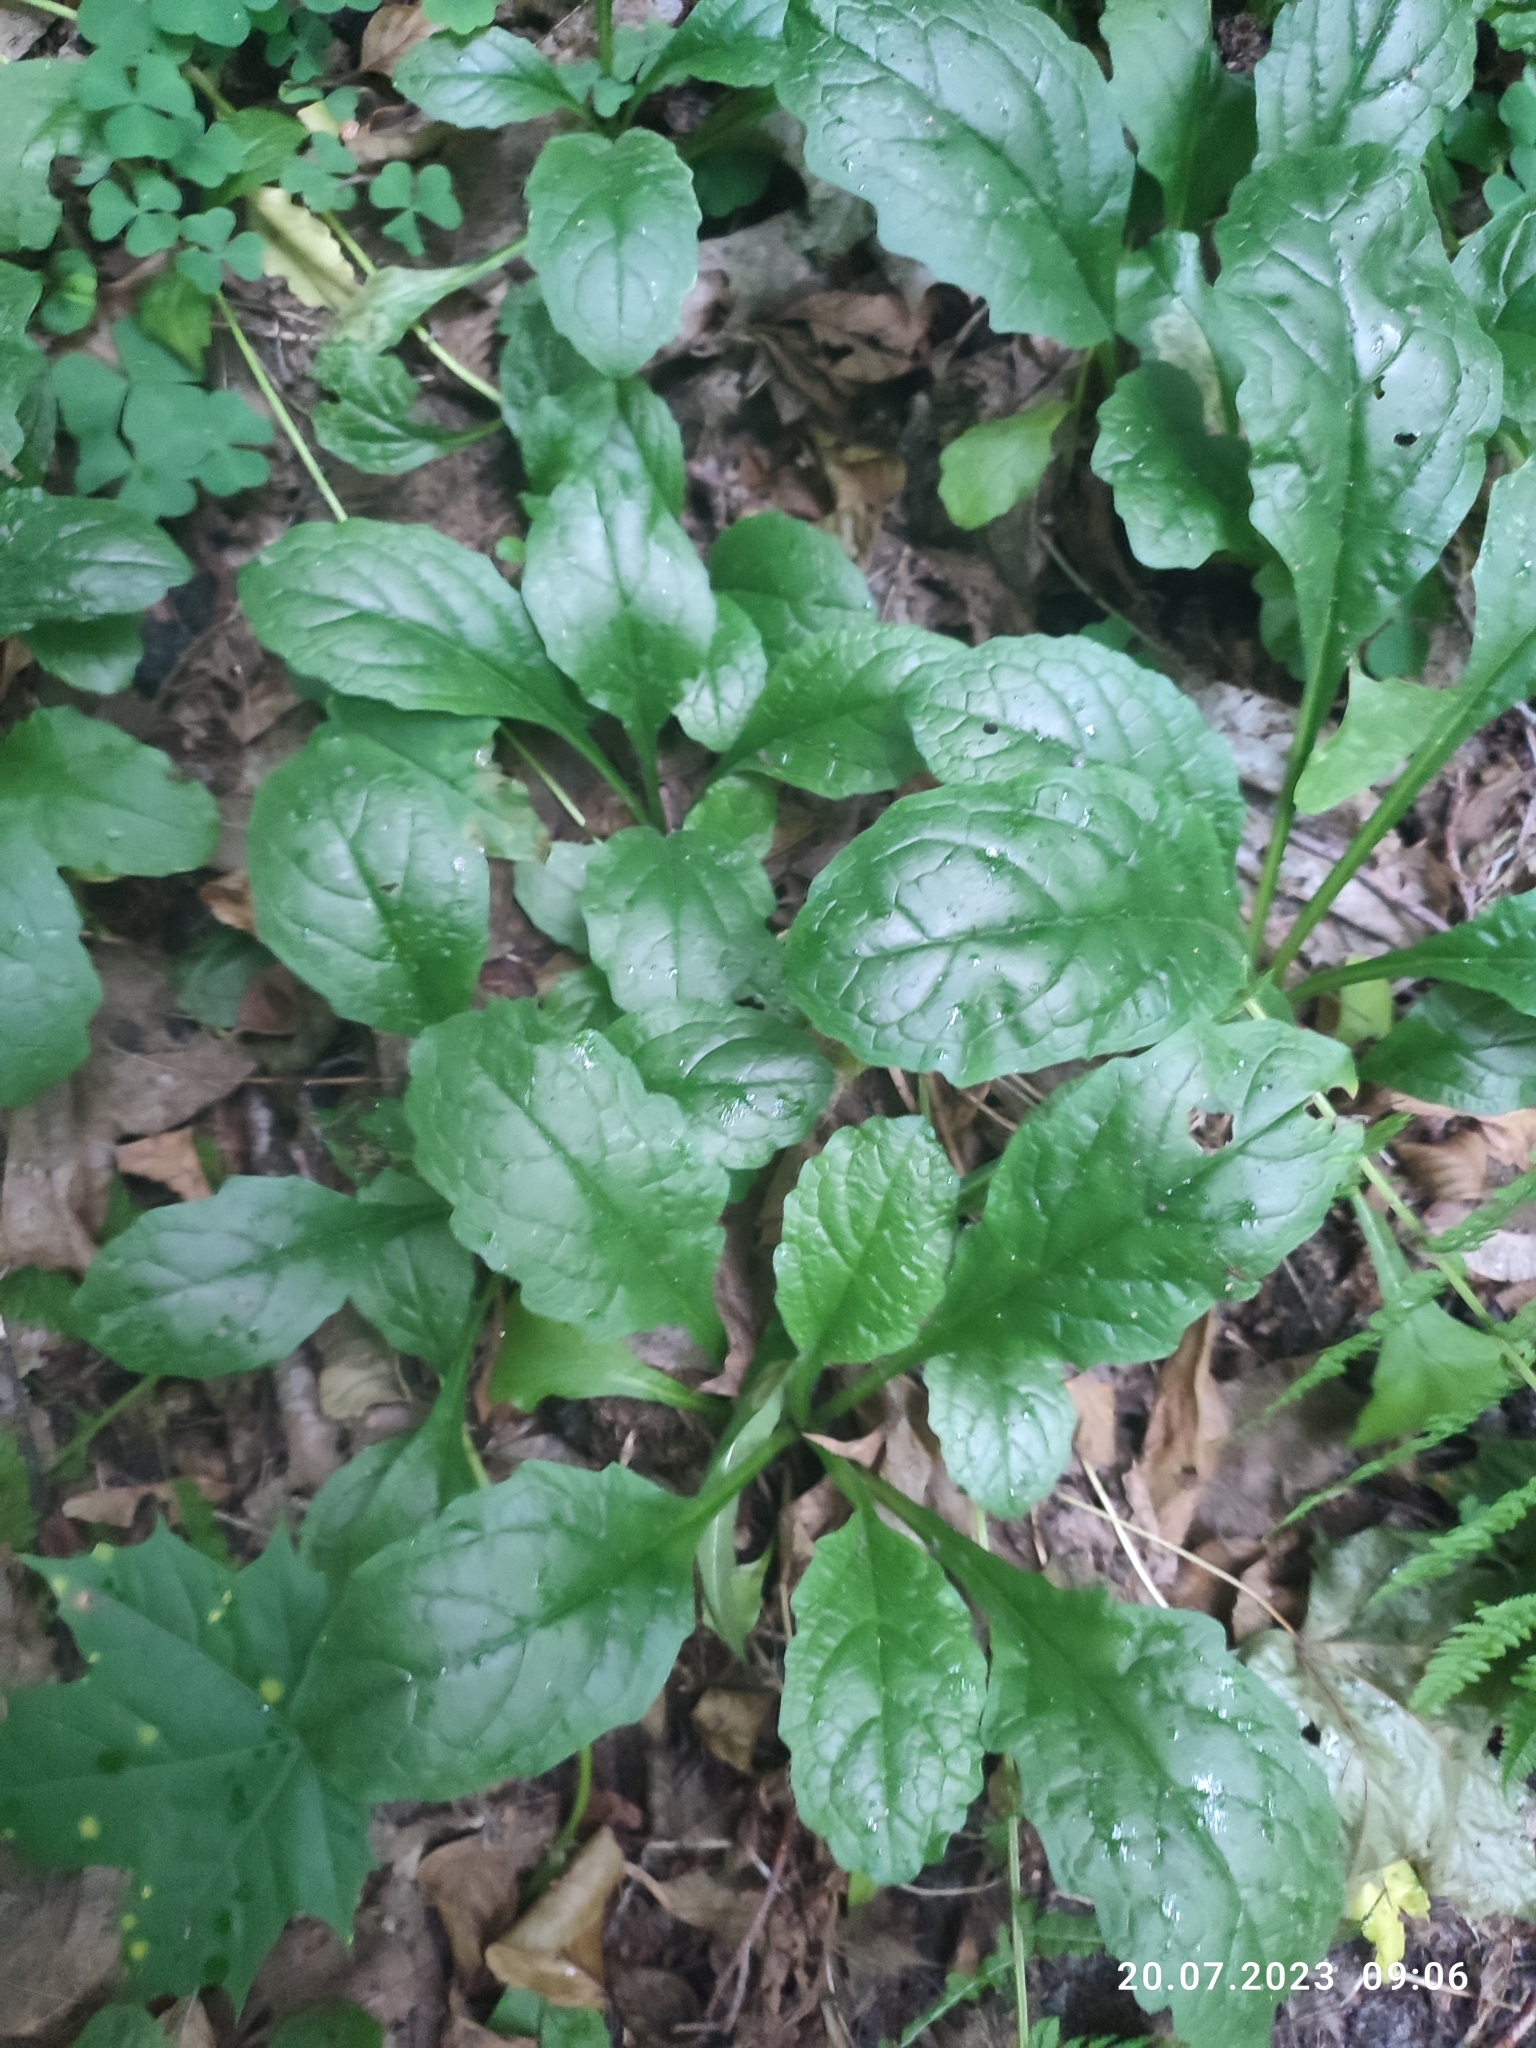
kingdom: Plantae
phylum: Tracheophyta
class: Magnoliopsida
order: Lamiales
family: Lamiaceae
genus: Ajuga
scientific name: Ajuga reptans
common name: Bugle
